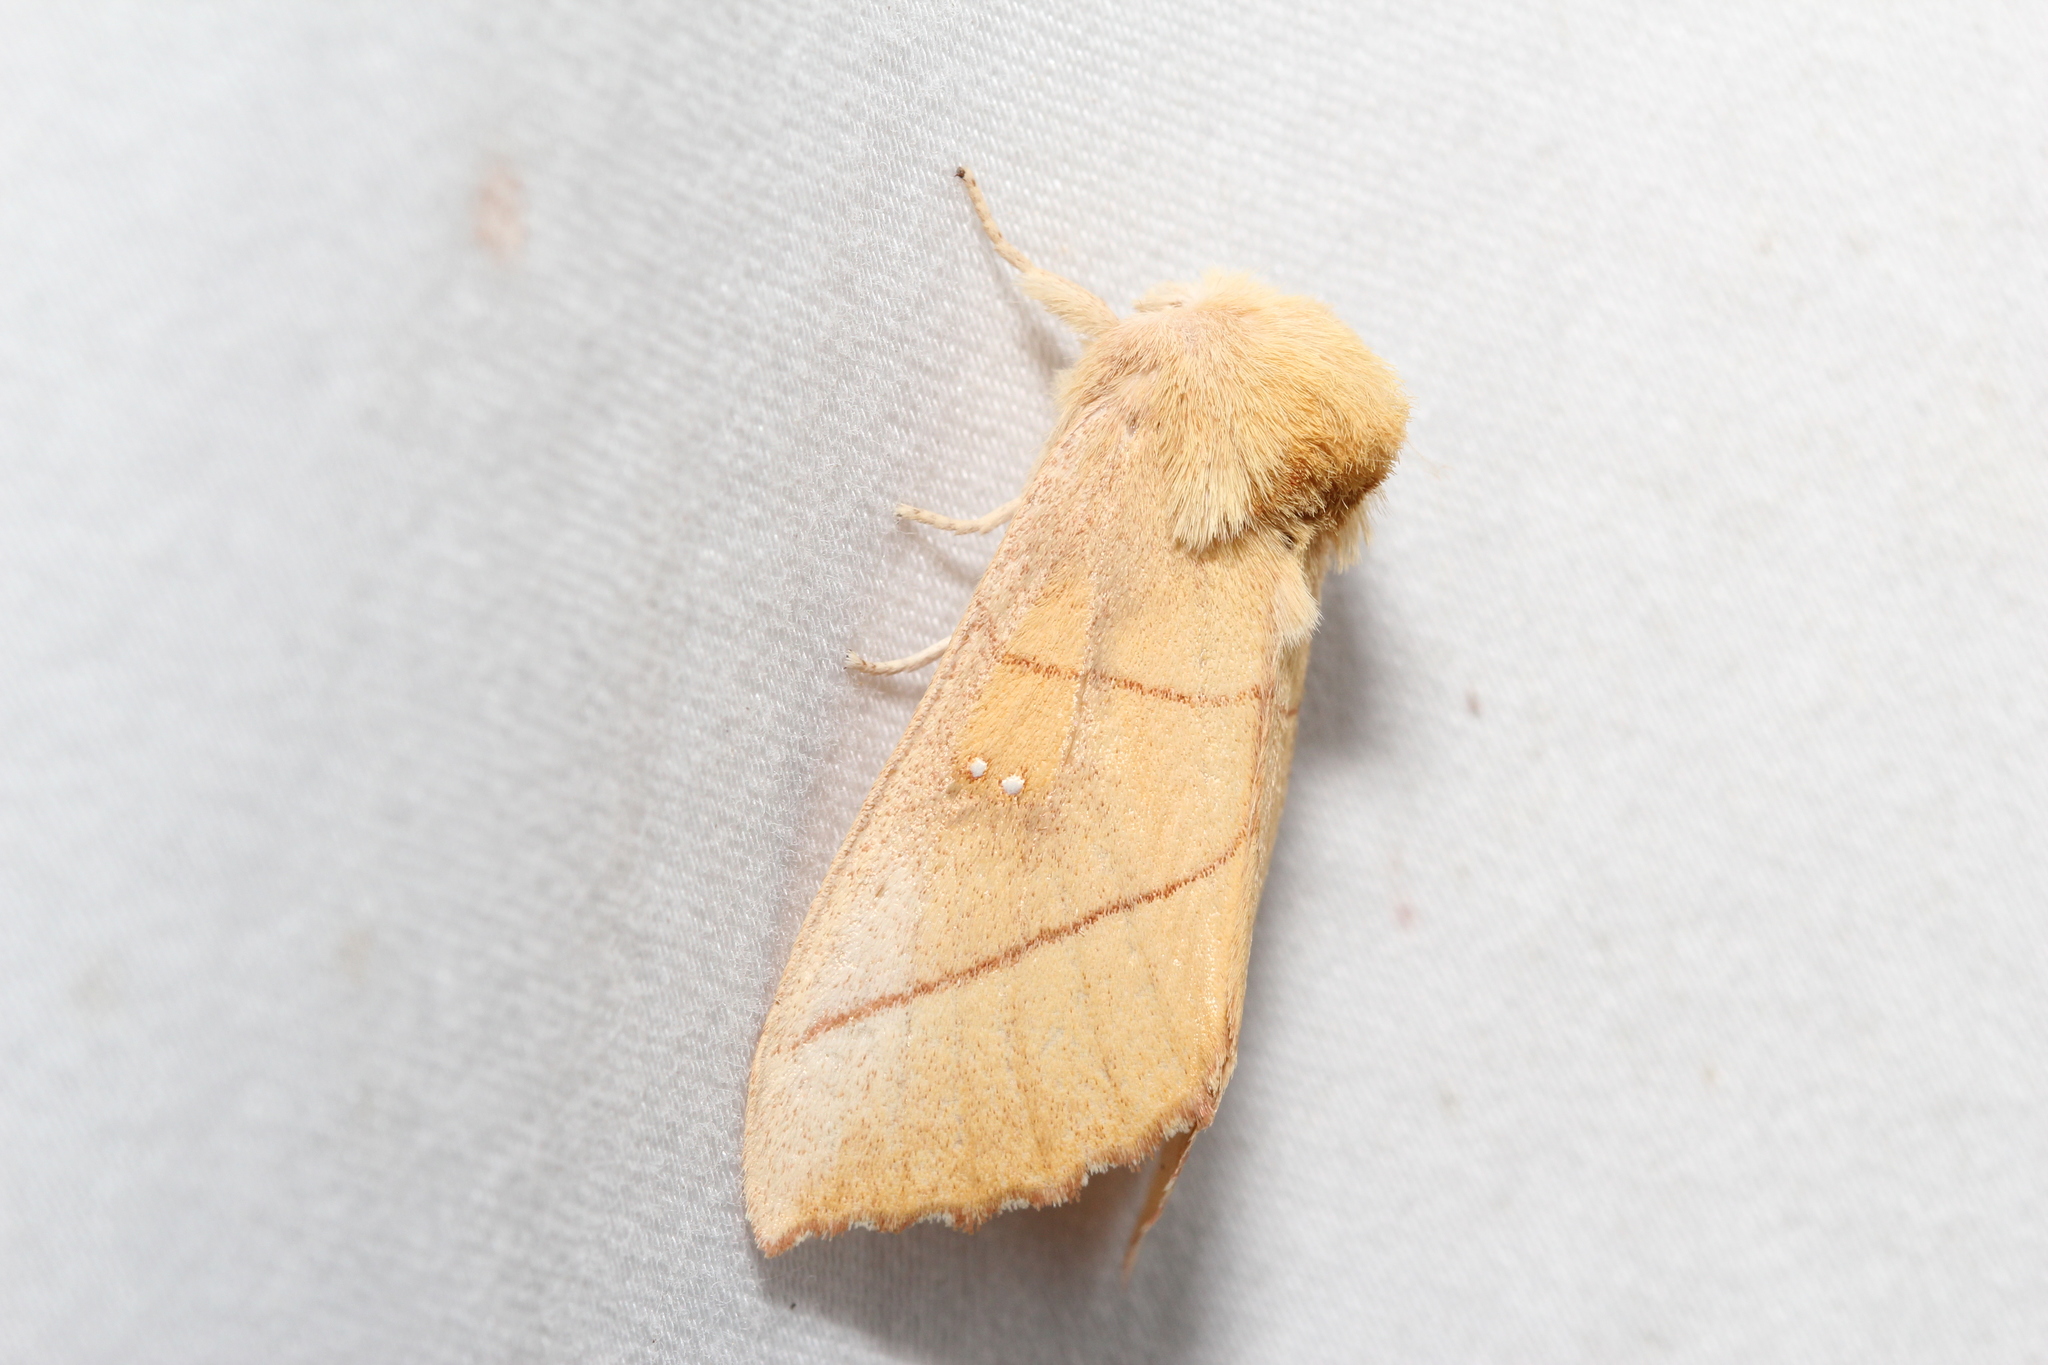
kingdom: Animalia
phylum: Arthropoda
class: Insecta
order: Lepidoptera
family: Notodontidae
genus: Nadata
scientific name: Nadata gibbosa
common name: White-dotted prominent
